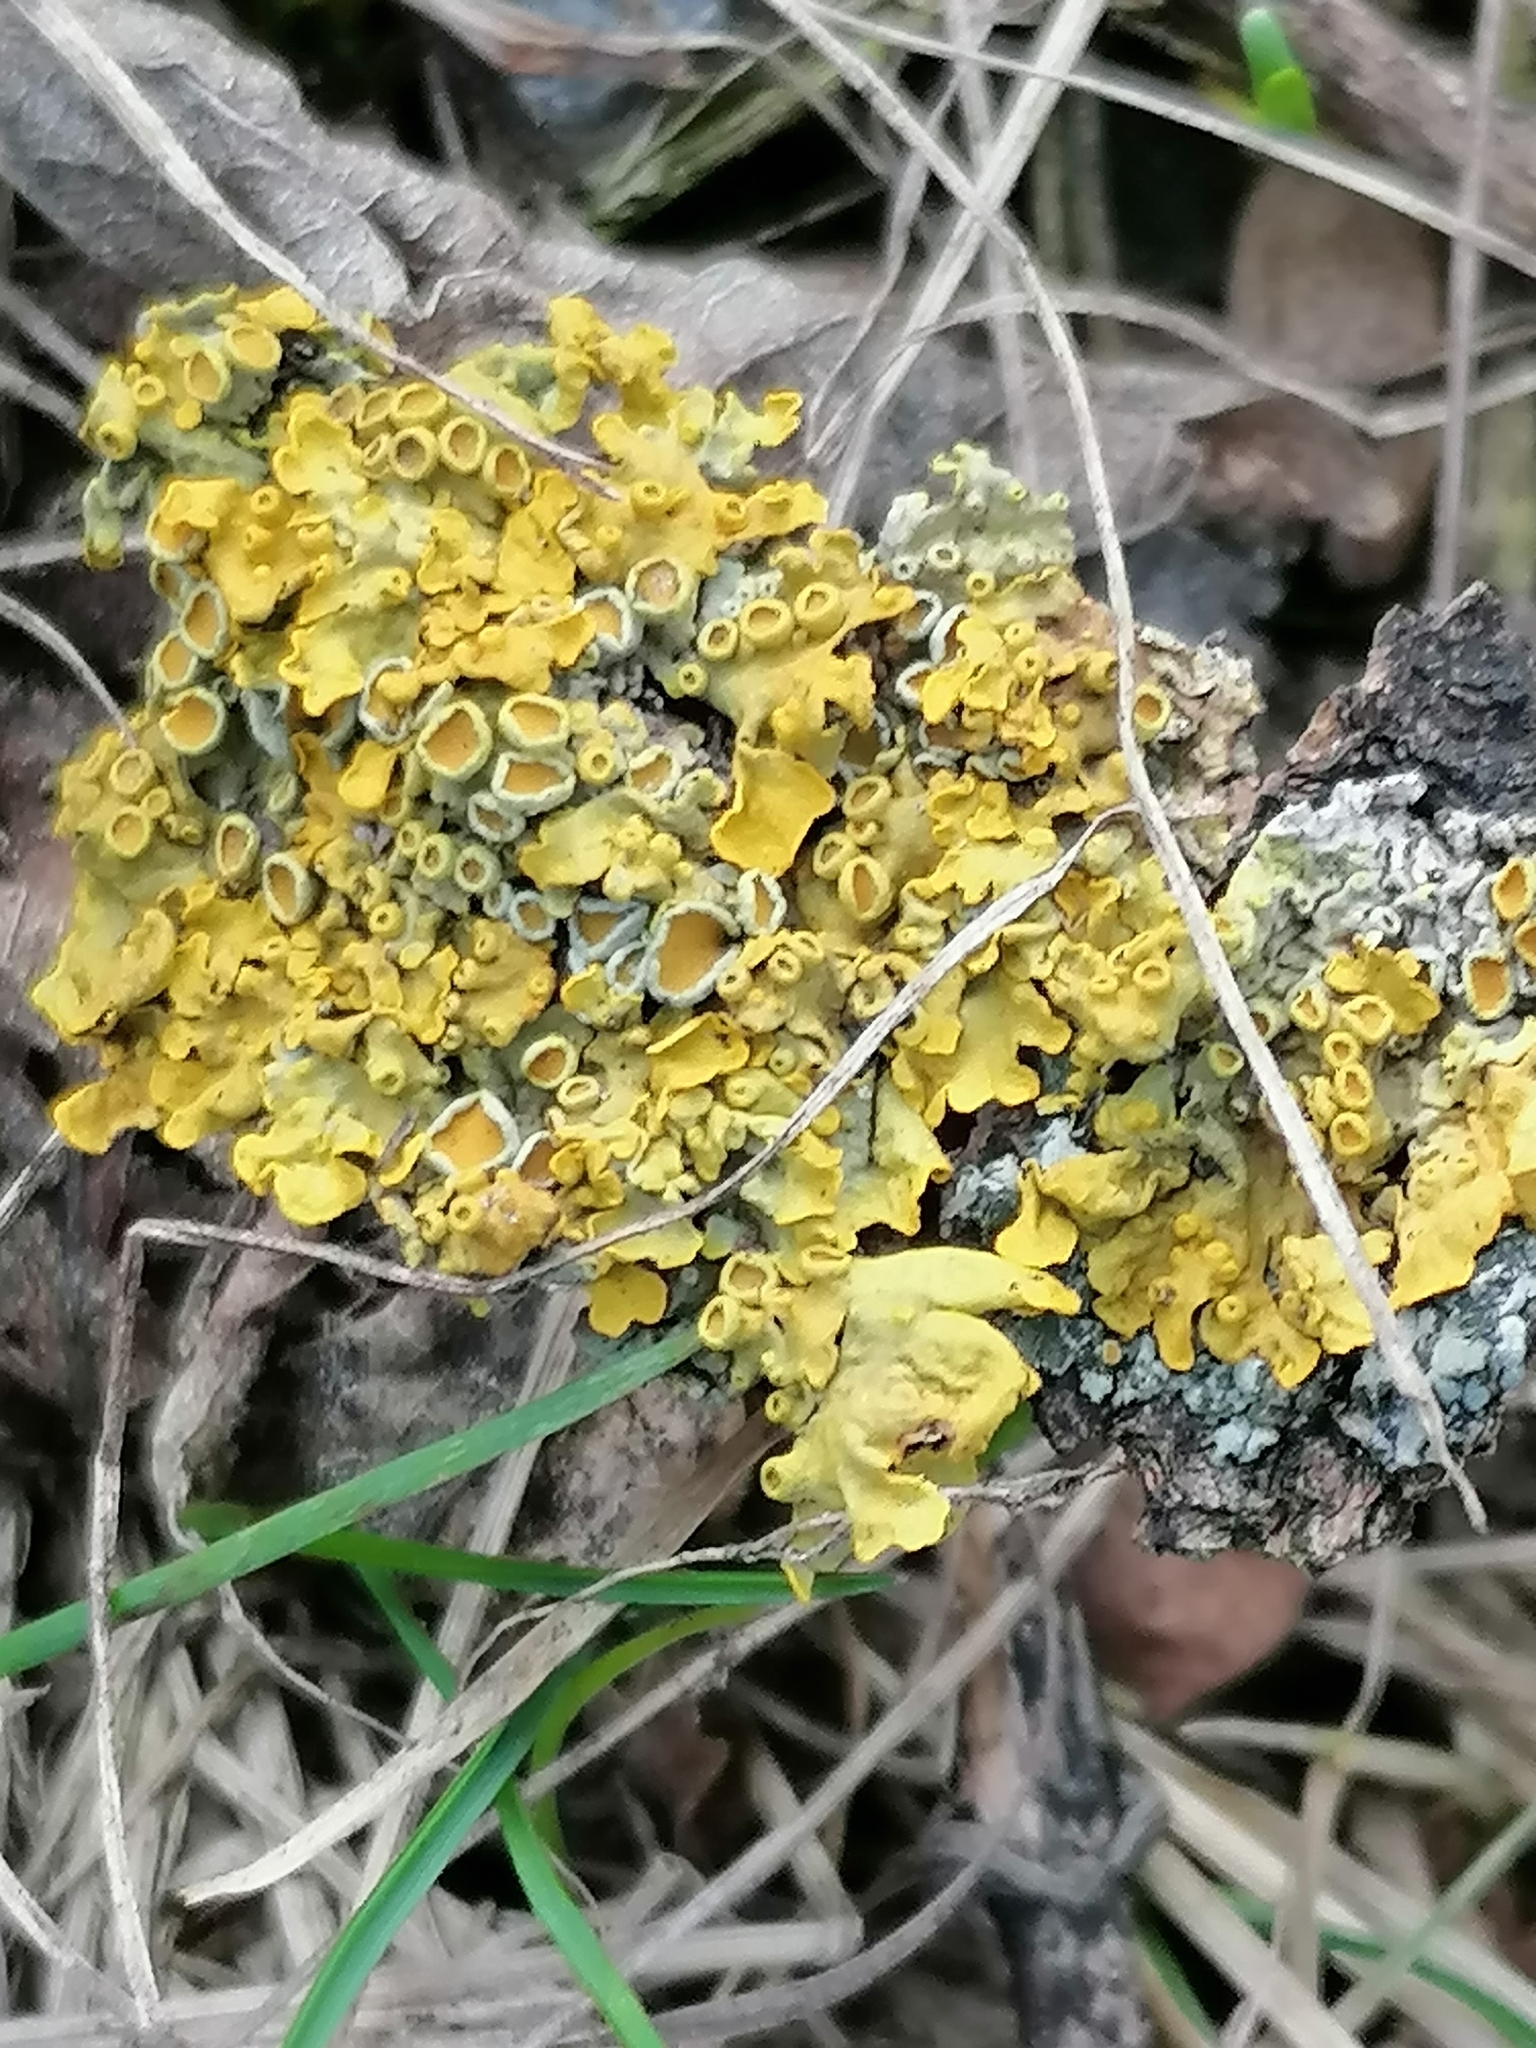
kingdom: Fungi
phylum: Ascomycota
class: Lecanoromycetes
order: Teloschistales
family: Teloschistaceae
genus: Xanthoria
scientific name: Xanthoria parietina
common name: Common orange lichen
